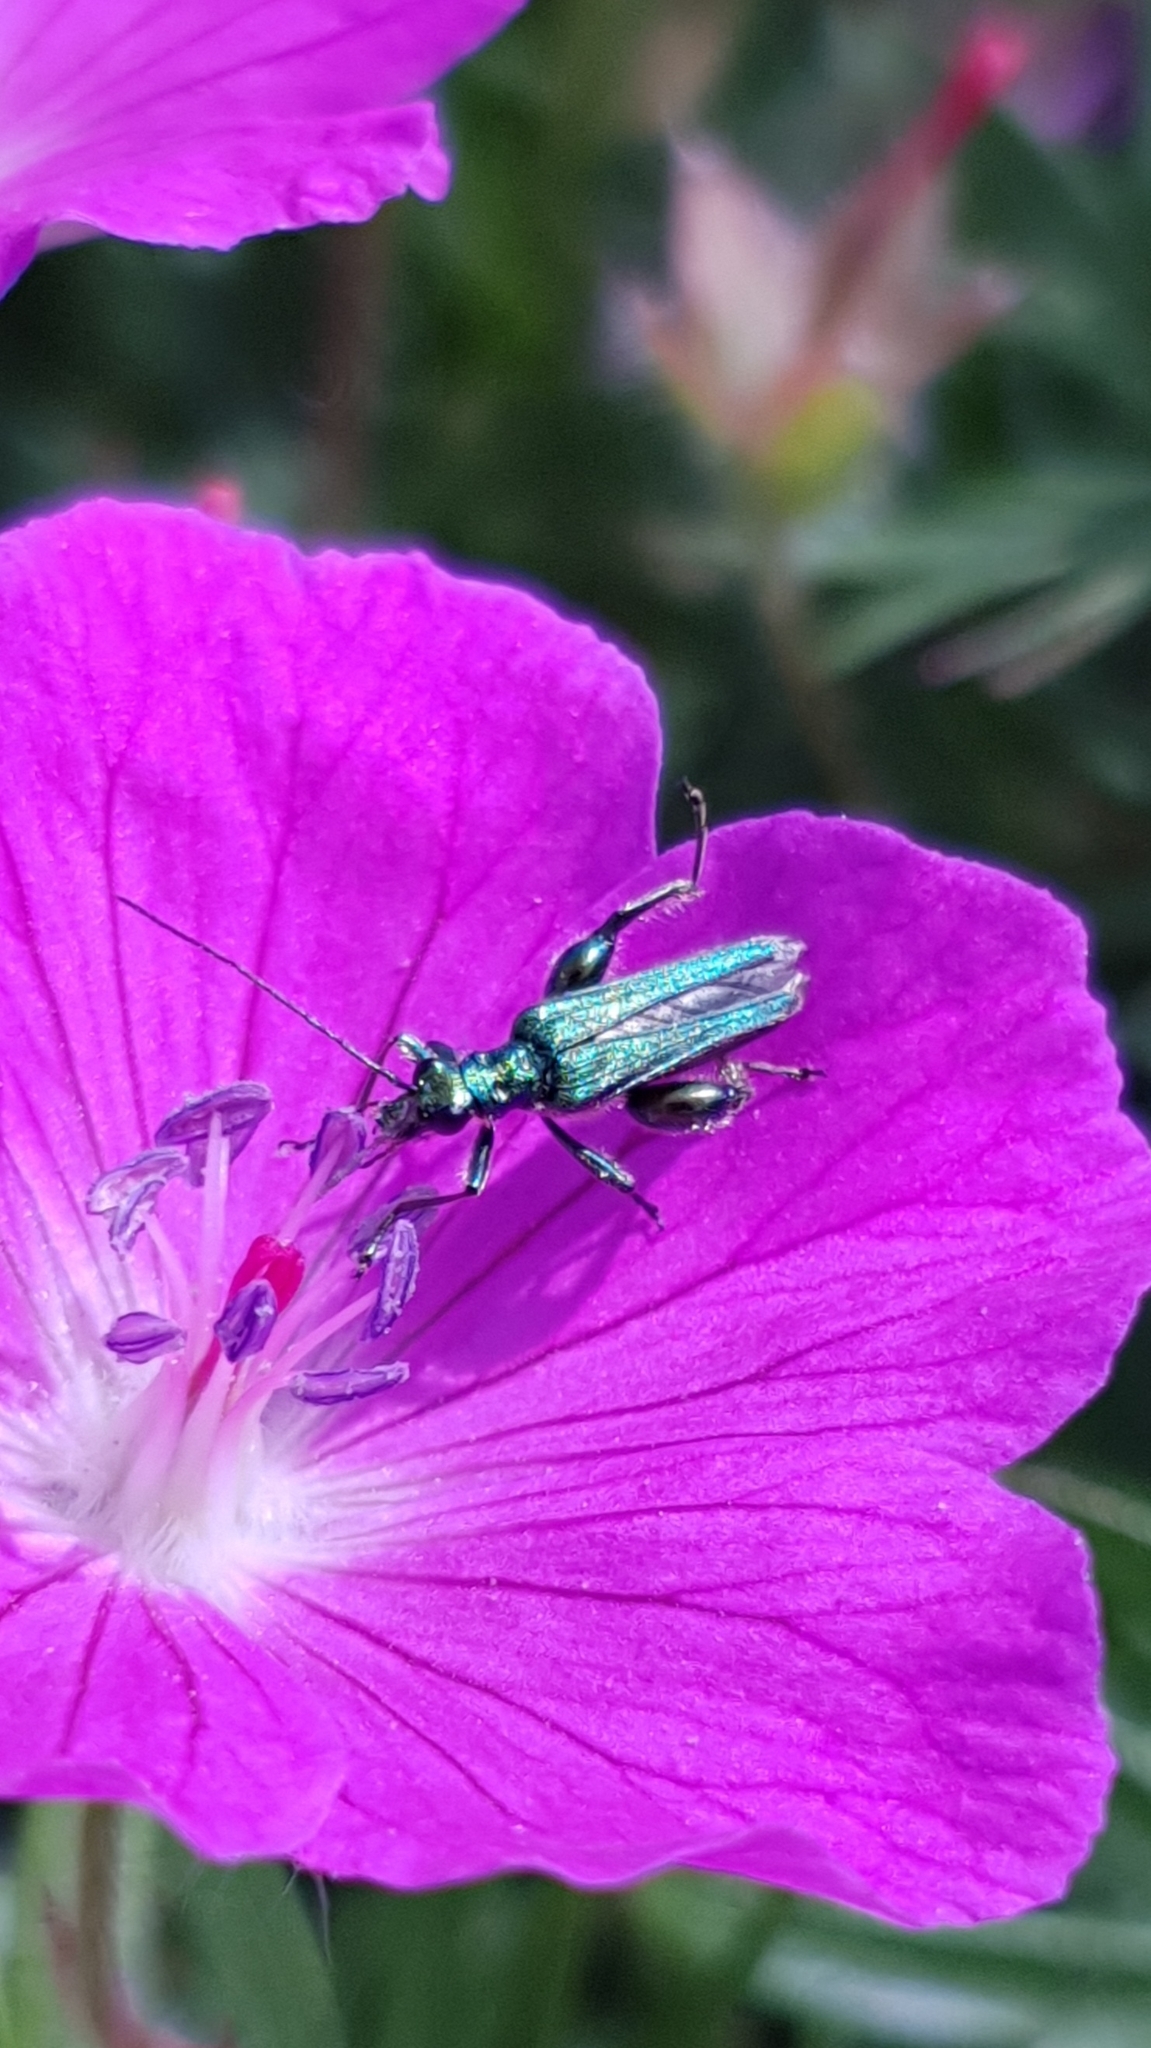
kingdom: Animalia
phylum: Arthropoda
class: Insecta
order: Coleoptera
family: Oedemeridae
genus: Oedemera
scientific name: Oedemera nobilis
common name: Swollen-thighed beetle
